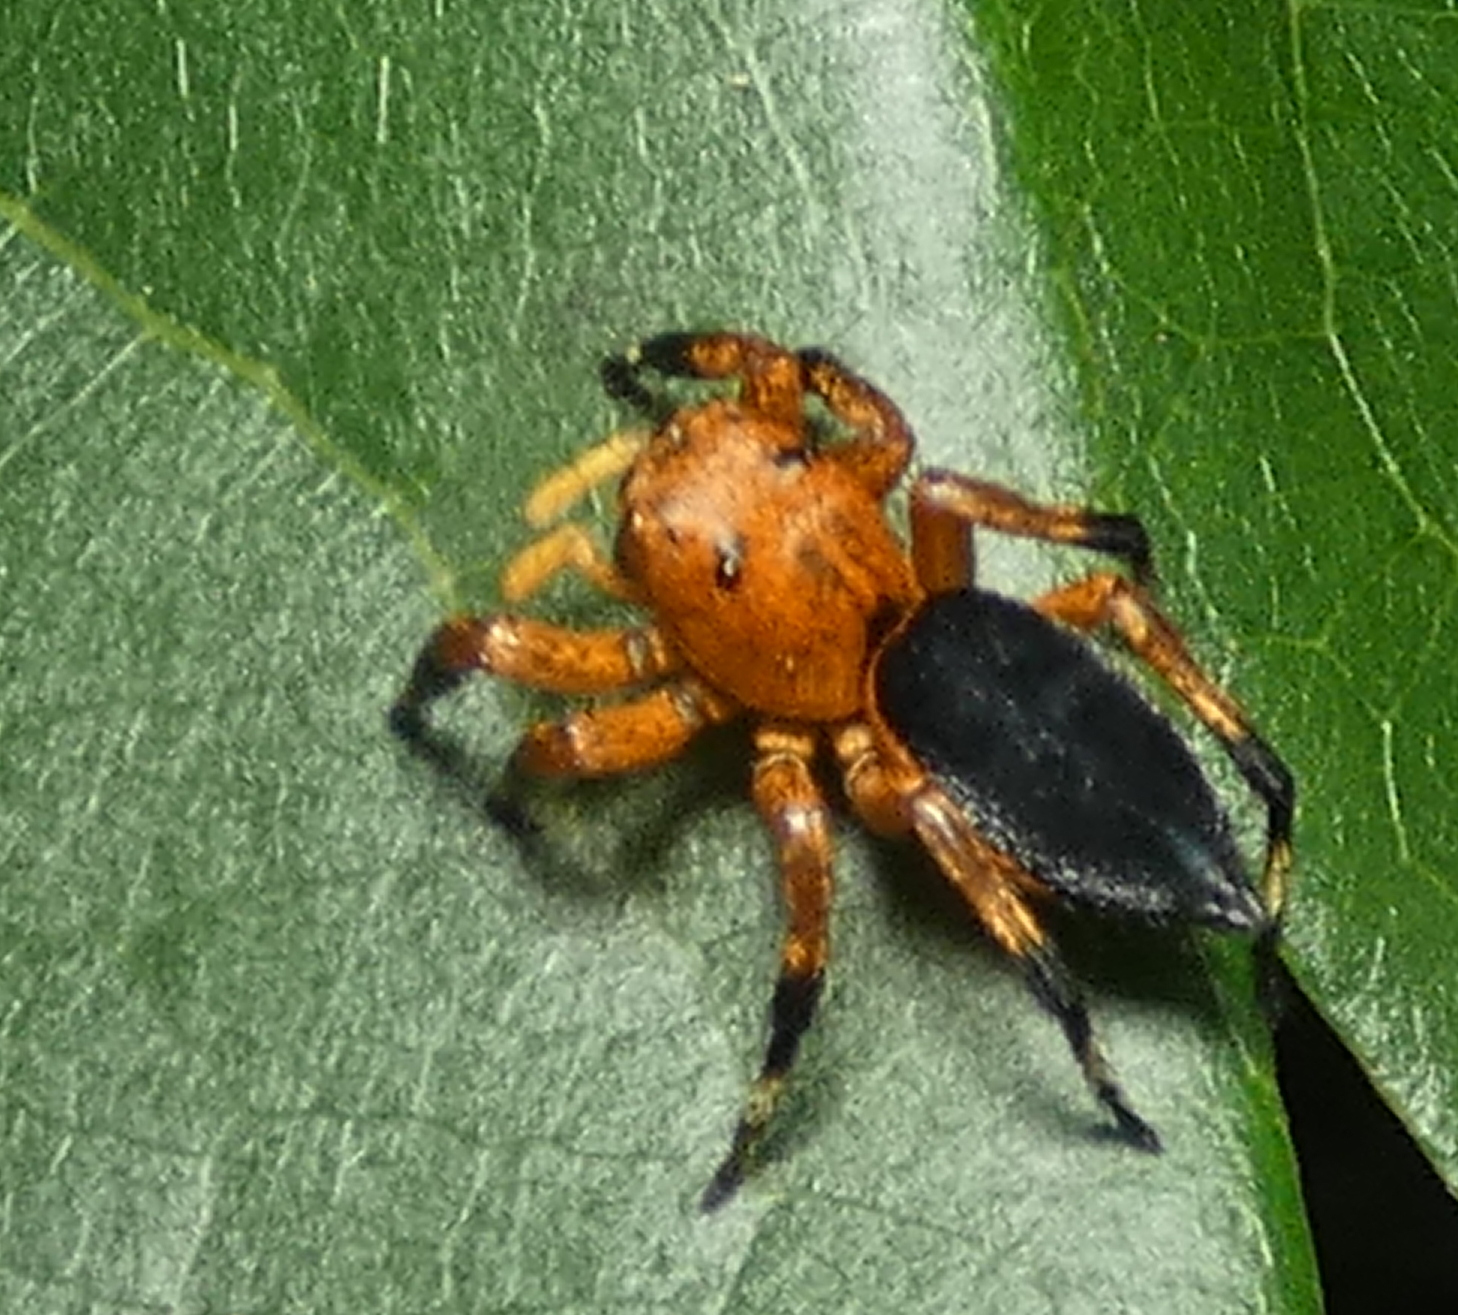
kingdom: Animalia
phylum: Arthropoda
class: Arachnida
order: Araneae
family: Salticidae
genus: Phiale
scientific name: Phiale crocea
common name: Jumping spiders
